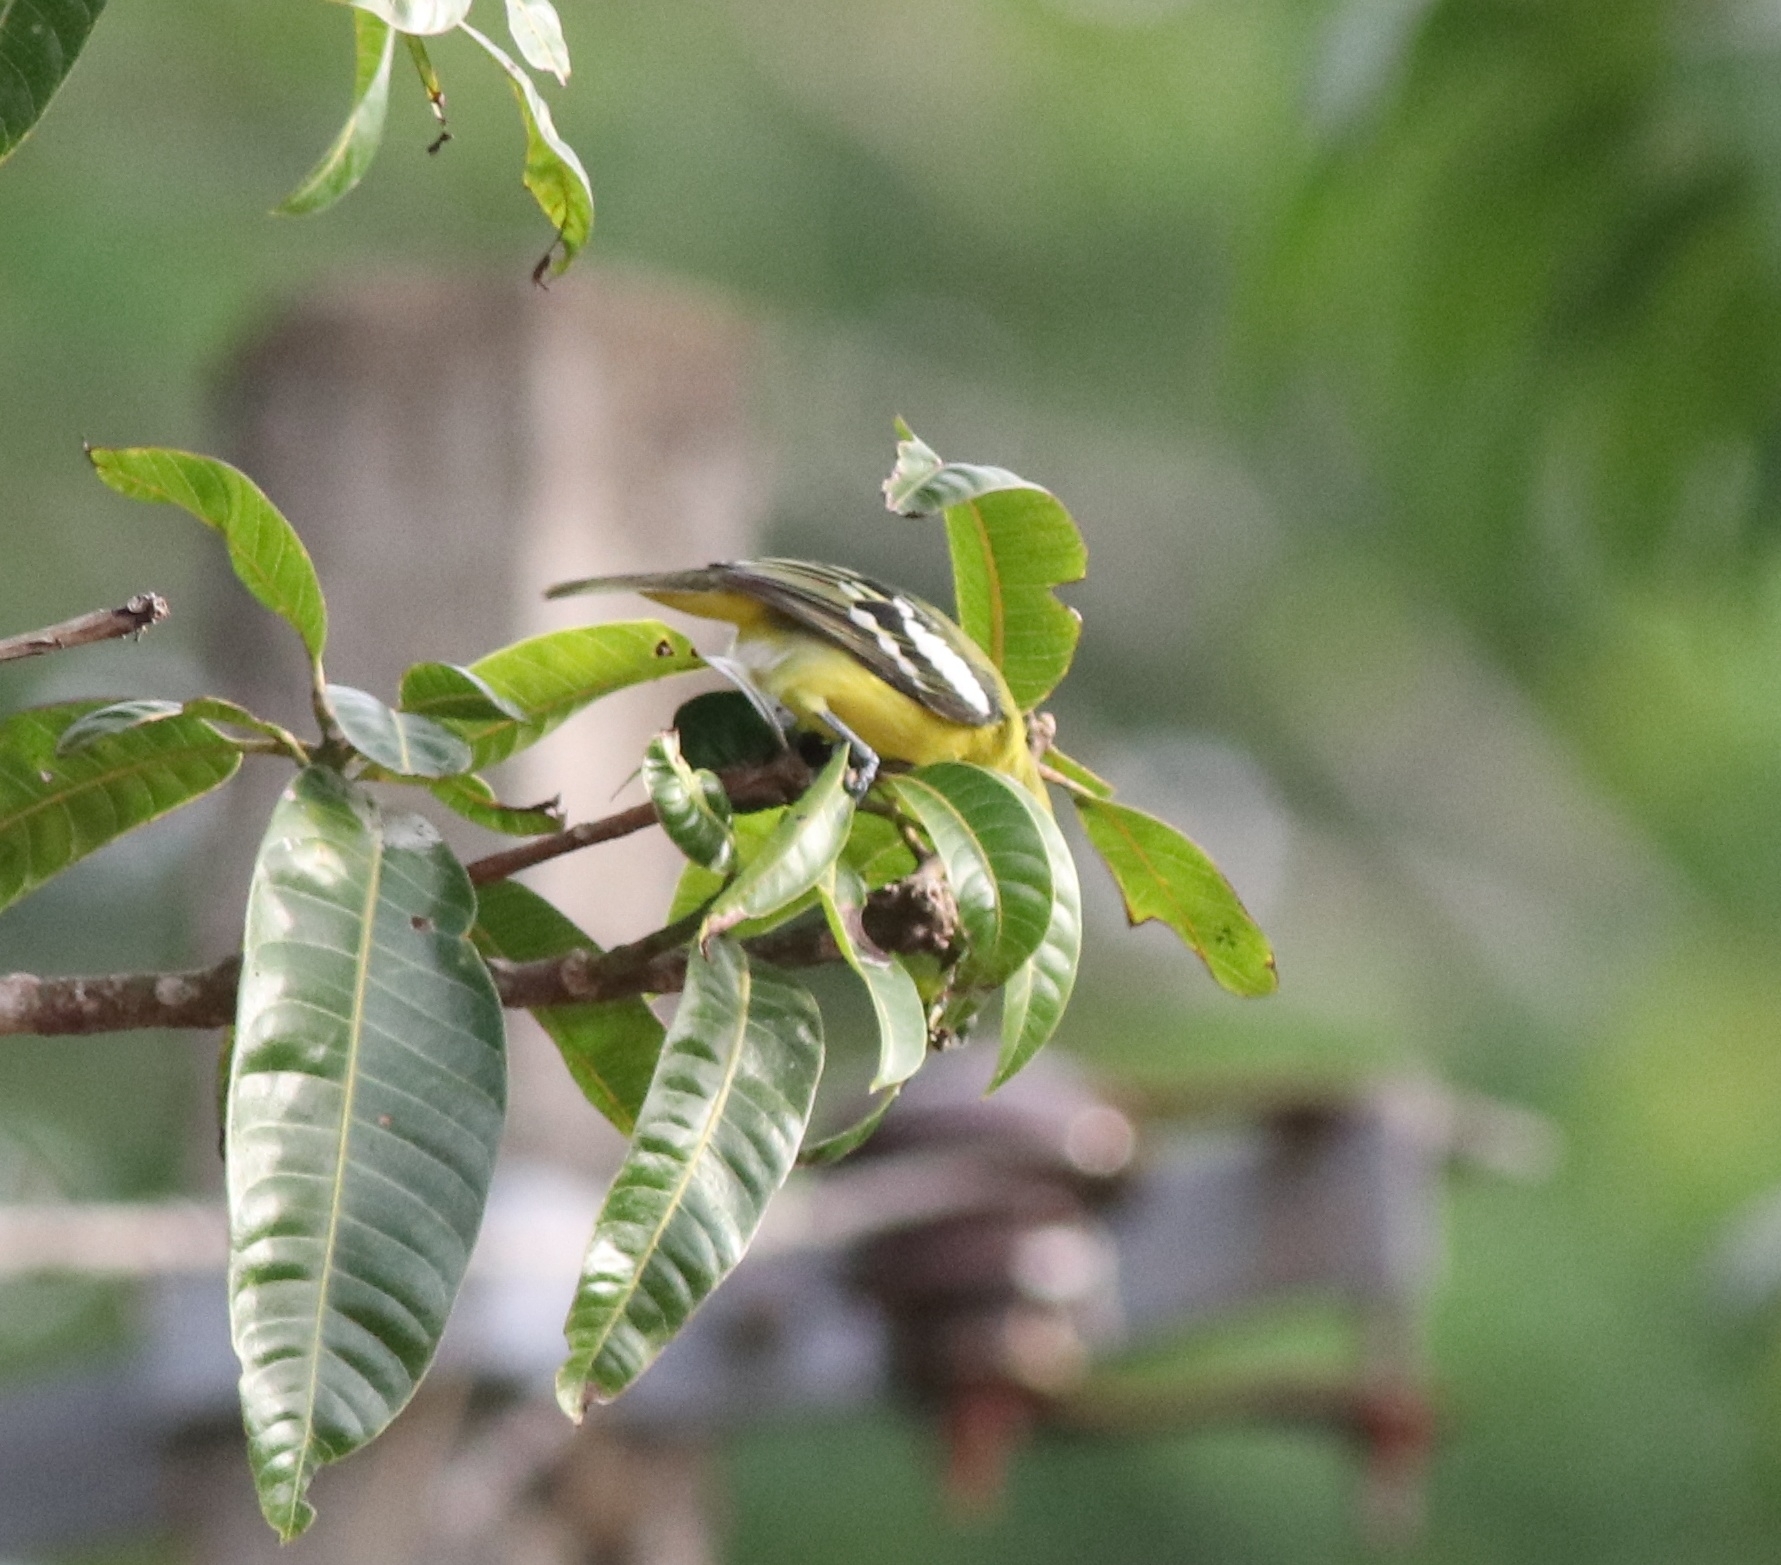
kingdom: Animalia
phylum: Chordata
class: Aves
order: Passeriformes
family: Aegithinidae
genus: Aegithina
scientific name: Aegithina tiphia
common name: Common iora
